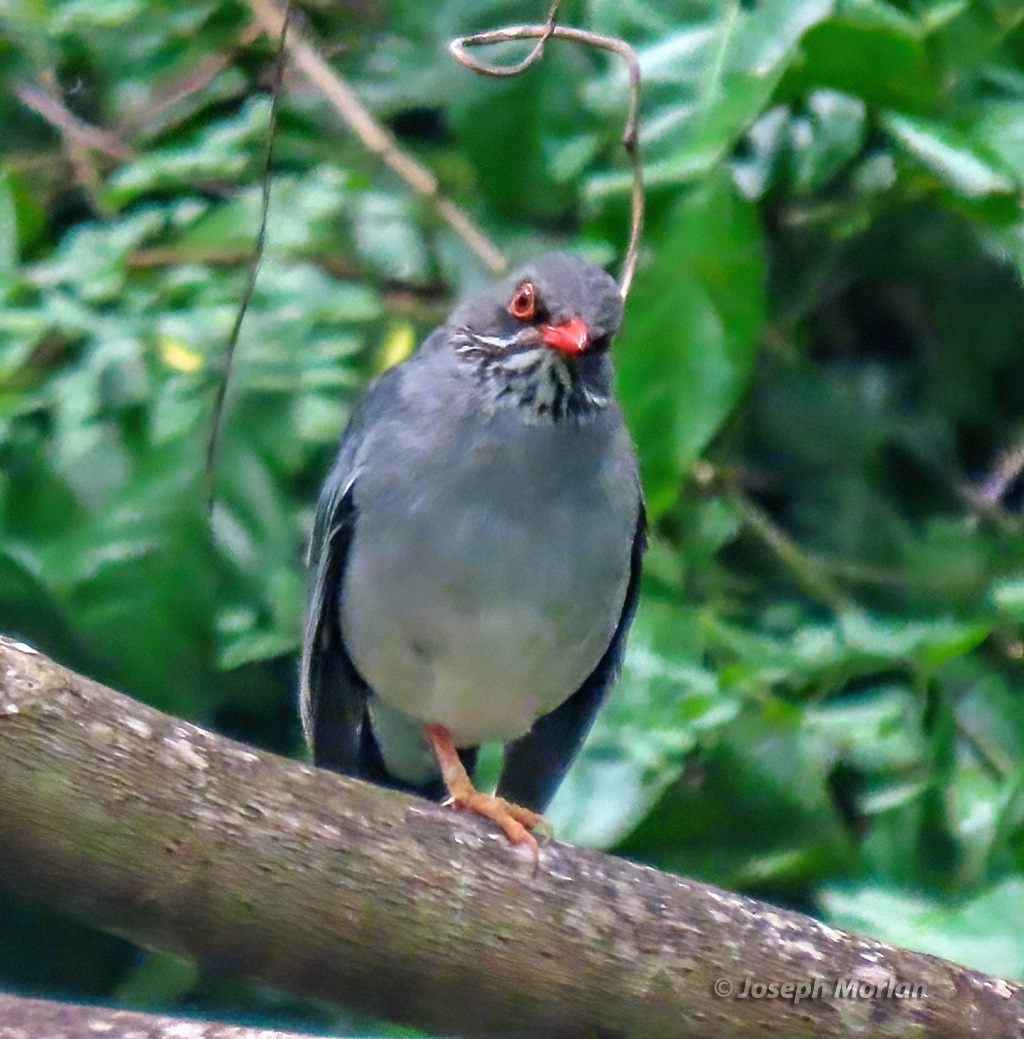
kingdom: Animalia
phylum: Chordata
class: Aves
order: Passeriformes
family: Turdidae
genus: Turdus
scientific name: Turdus plumbeus
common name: Red-legged thrush
